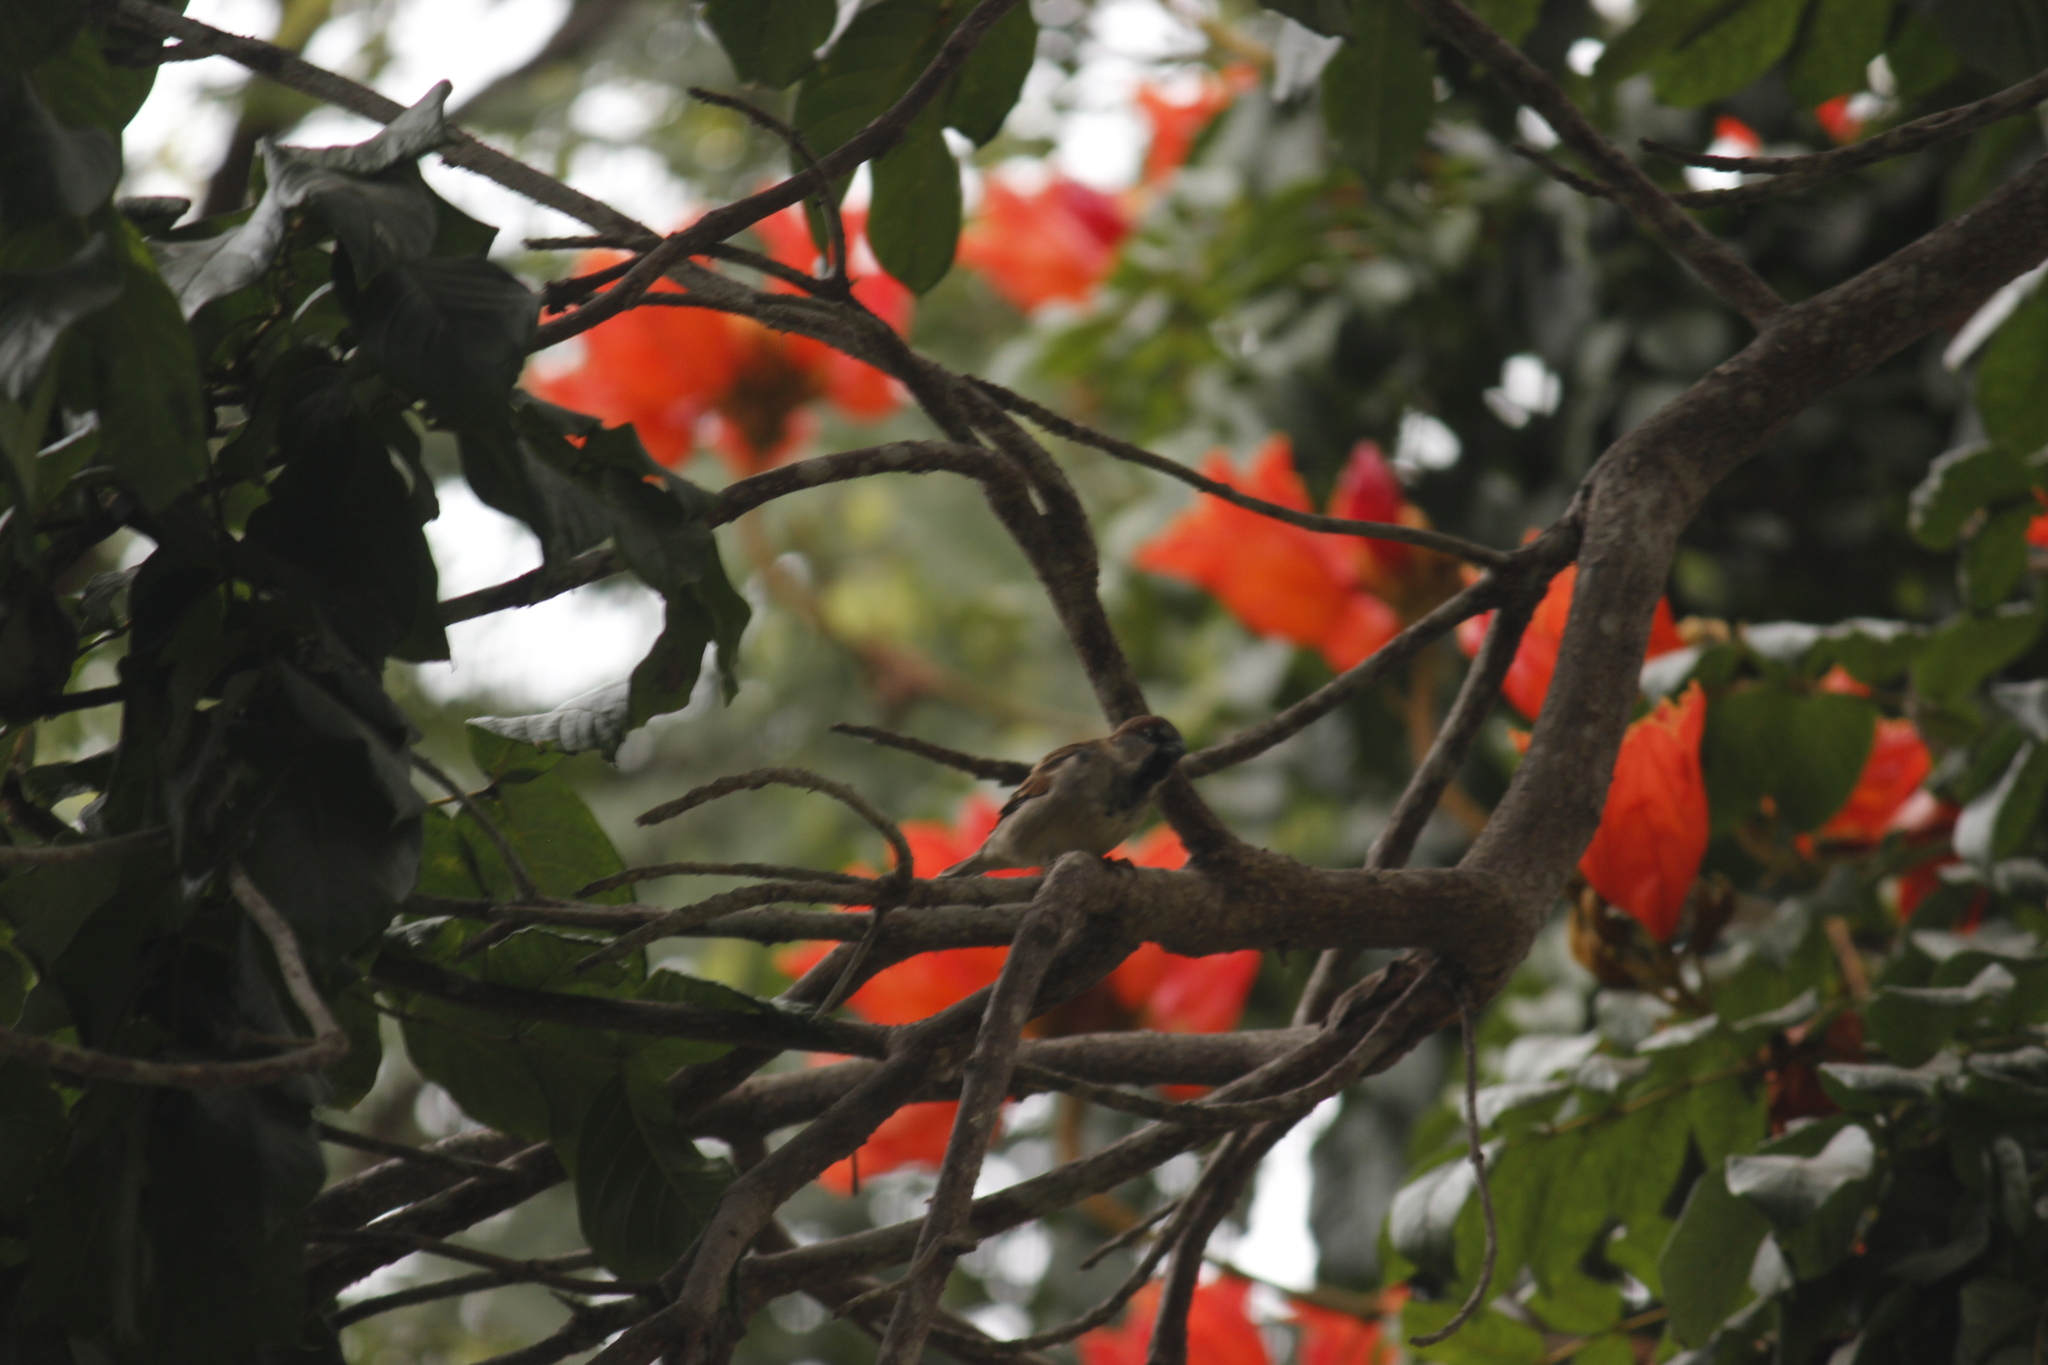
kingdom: Animalia
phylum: Chordata
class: Aves
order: Passeriformes
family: Passeridae
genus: Passer
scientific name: Passer domesticus
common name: House sparrow
